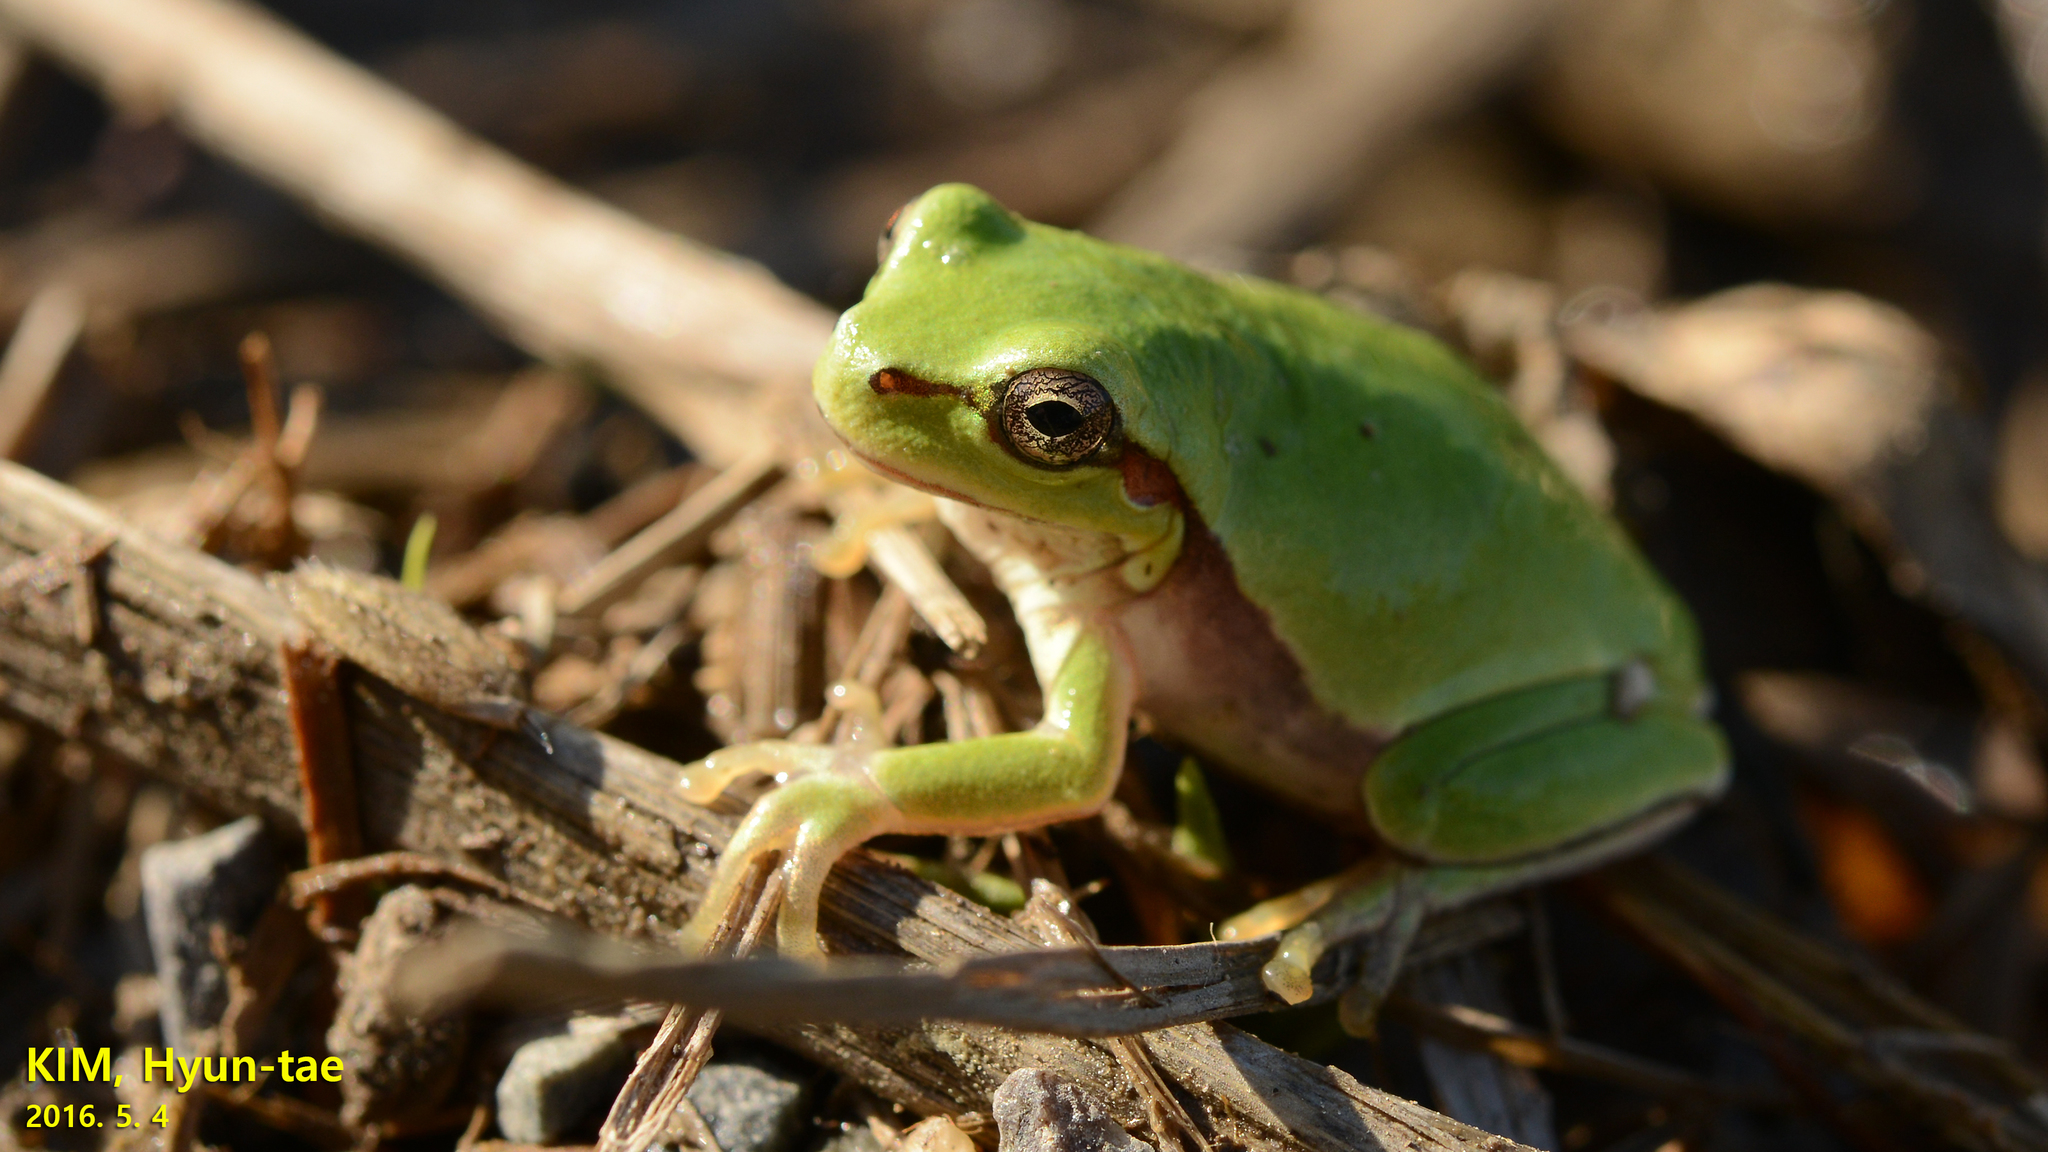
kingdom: Animalia
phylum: Chordata
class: Amphibia
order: Anura
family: Hylidae
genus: Dryophytes
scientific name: Dryophytes immaculatus
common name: North china treefrog
